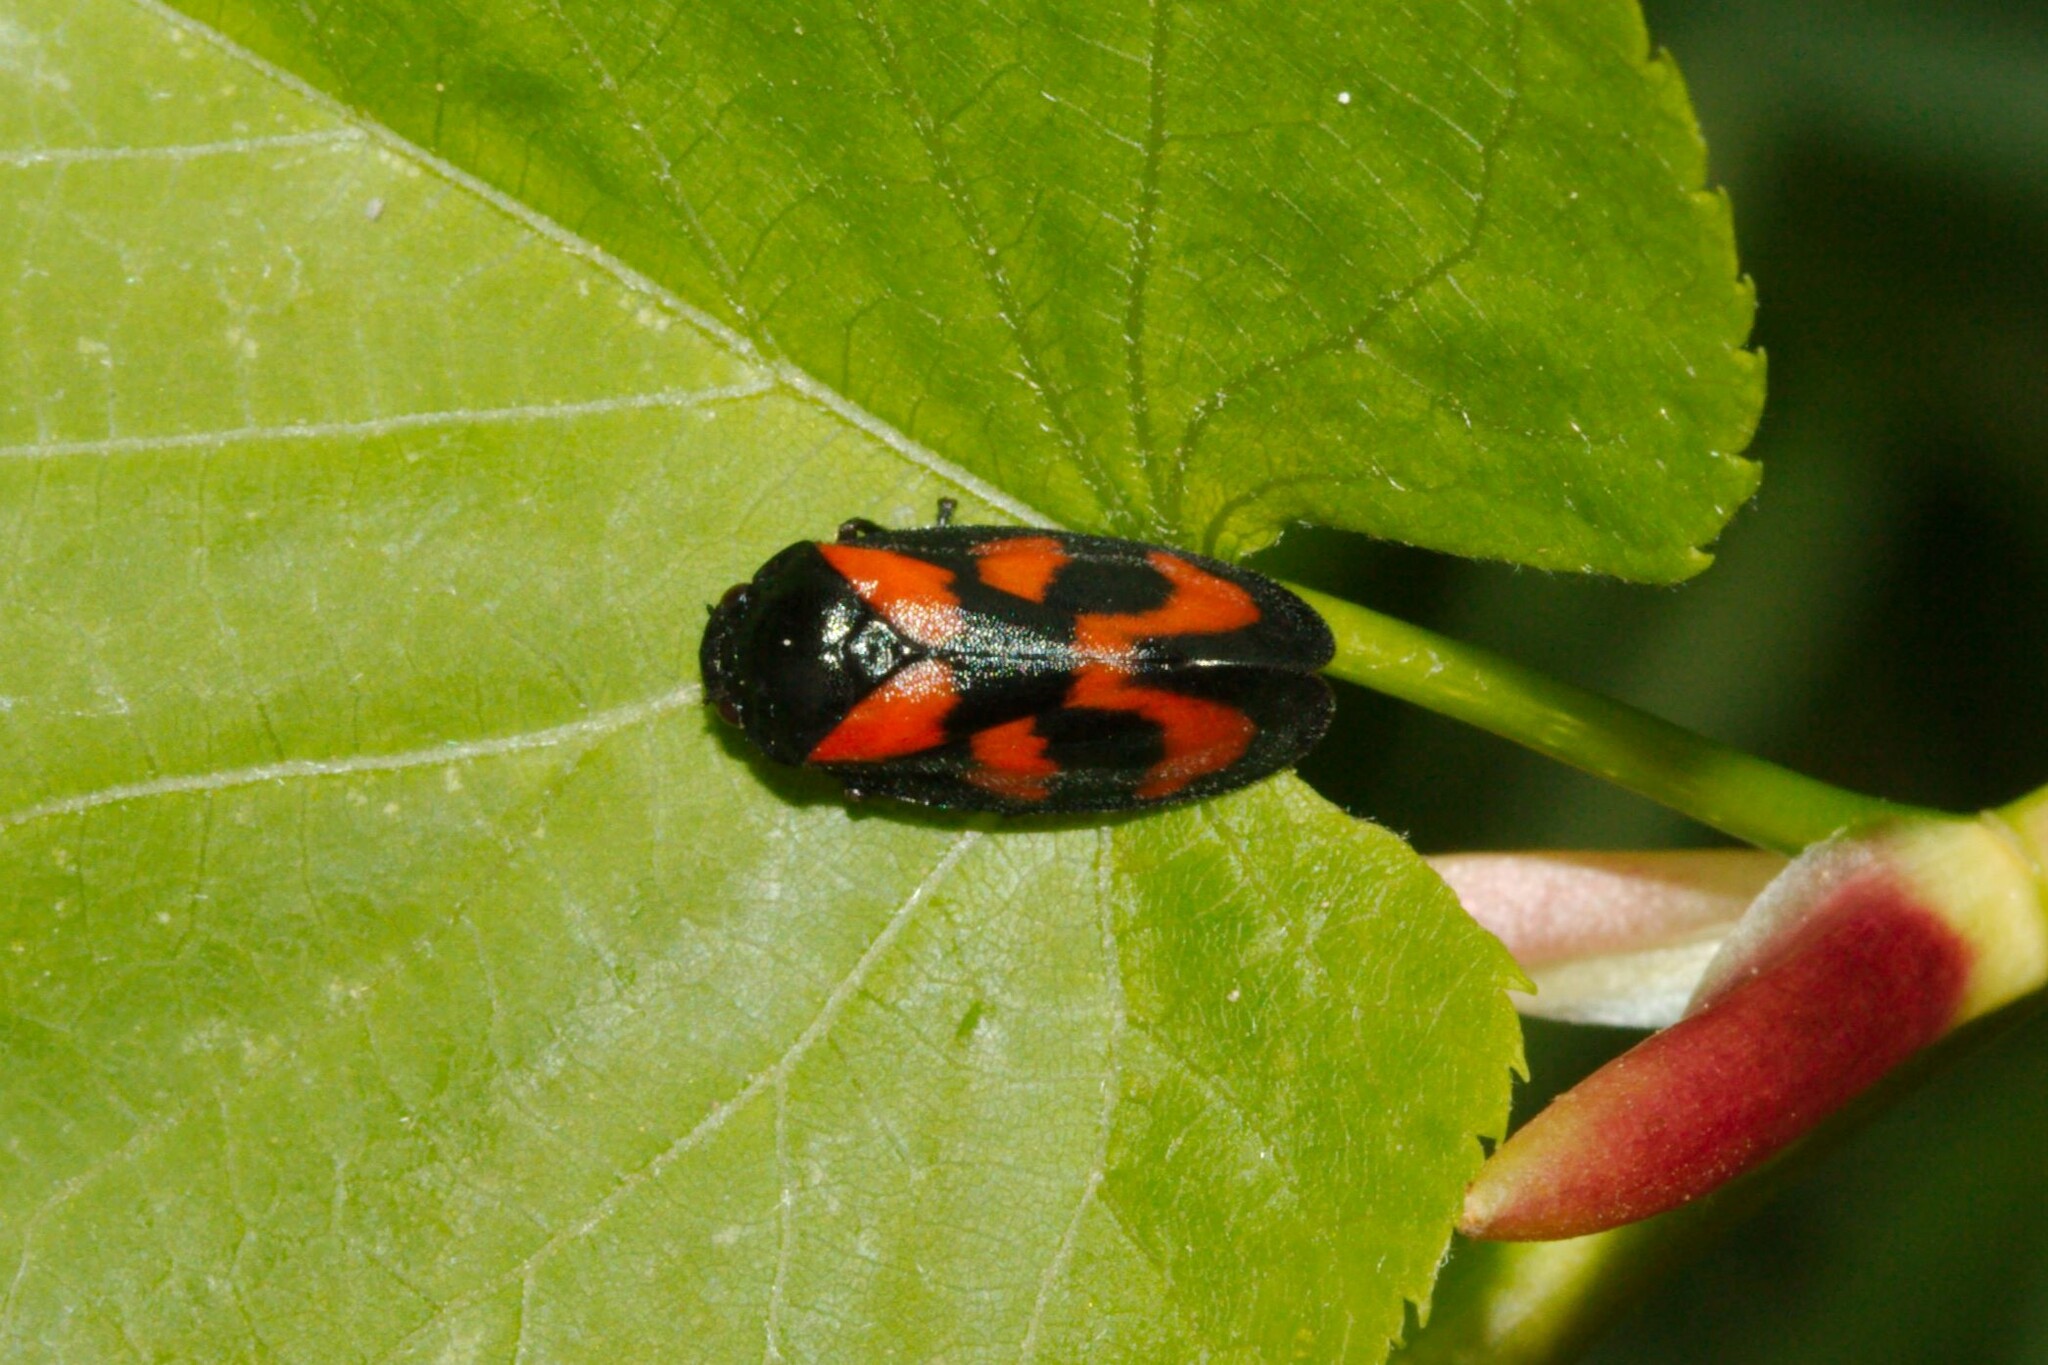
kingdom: Animalia
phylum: Arthropoda
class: Insecta
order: Hemiptera
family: Cercopidae
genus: Cercopis
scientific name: Cercopis vulnerata
